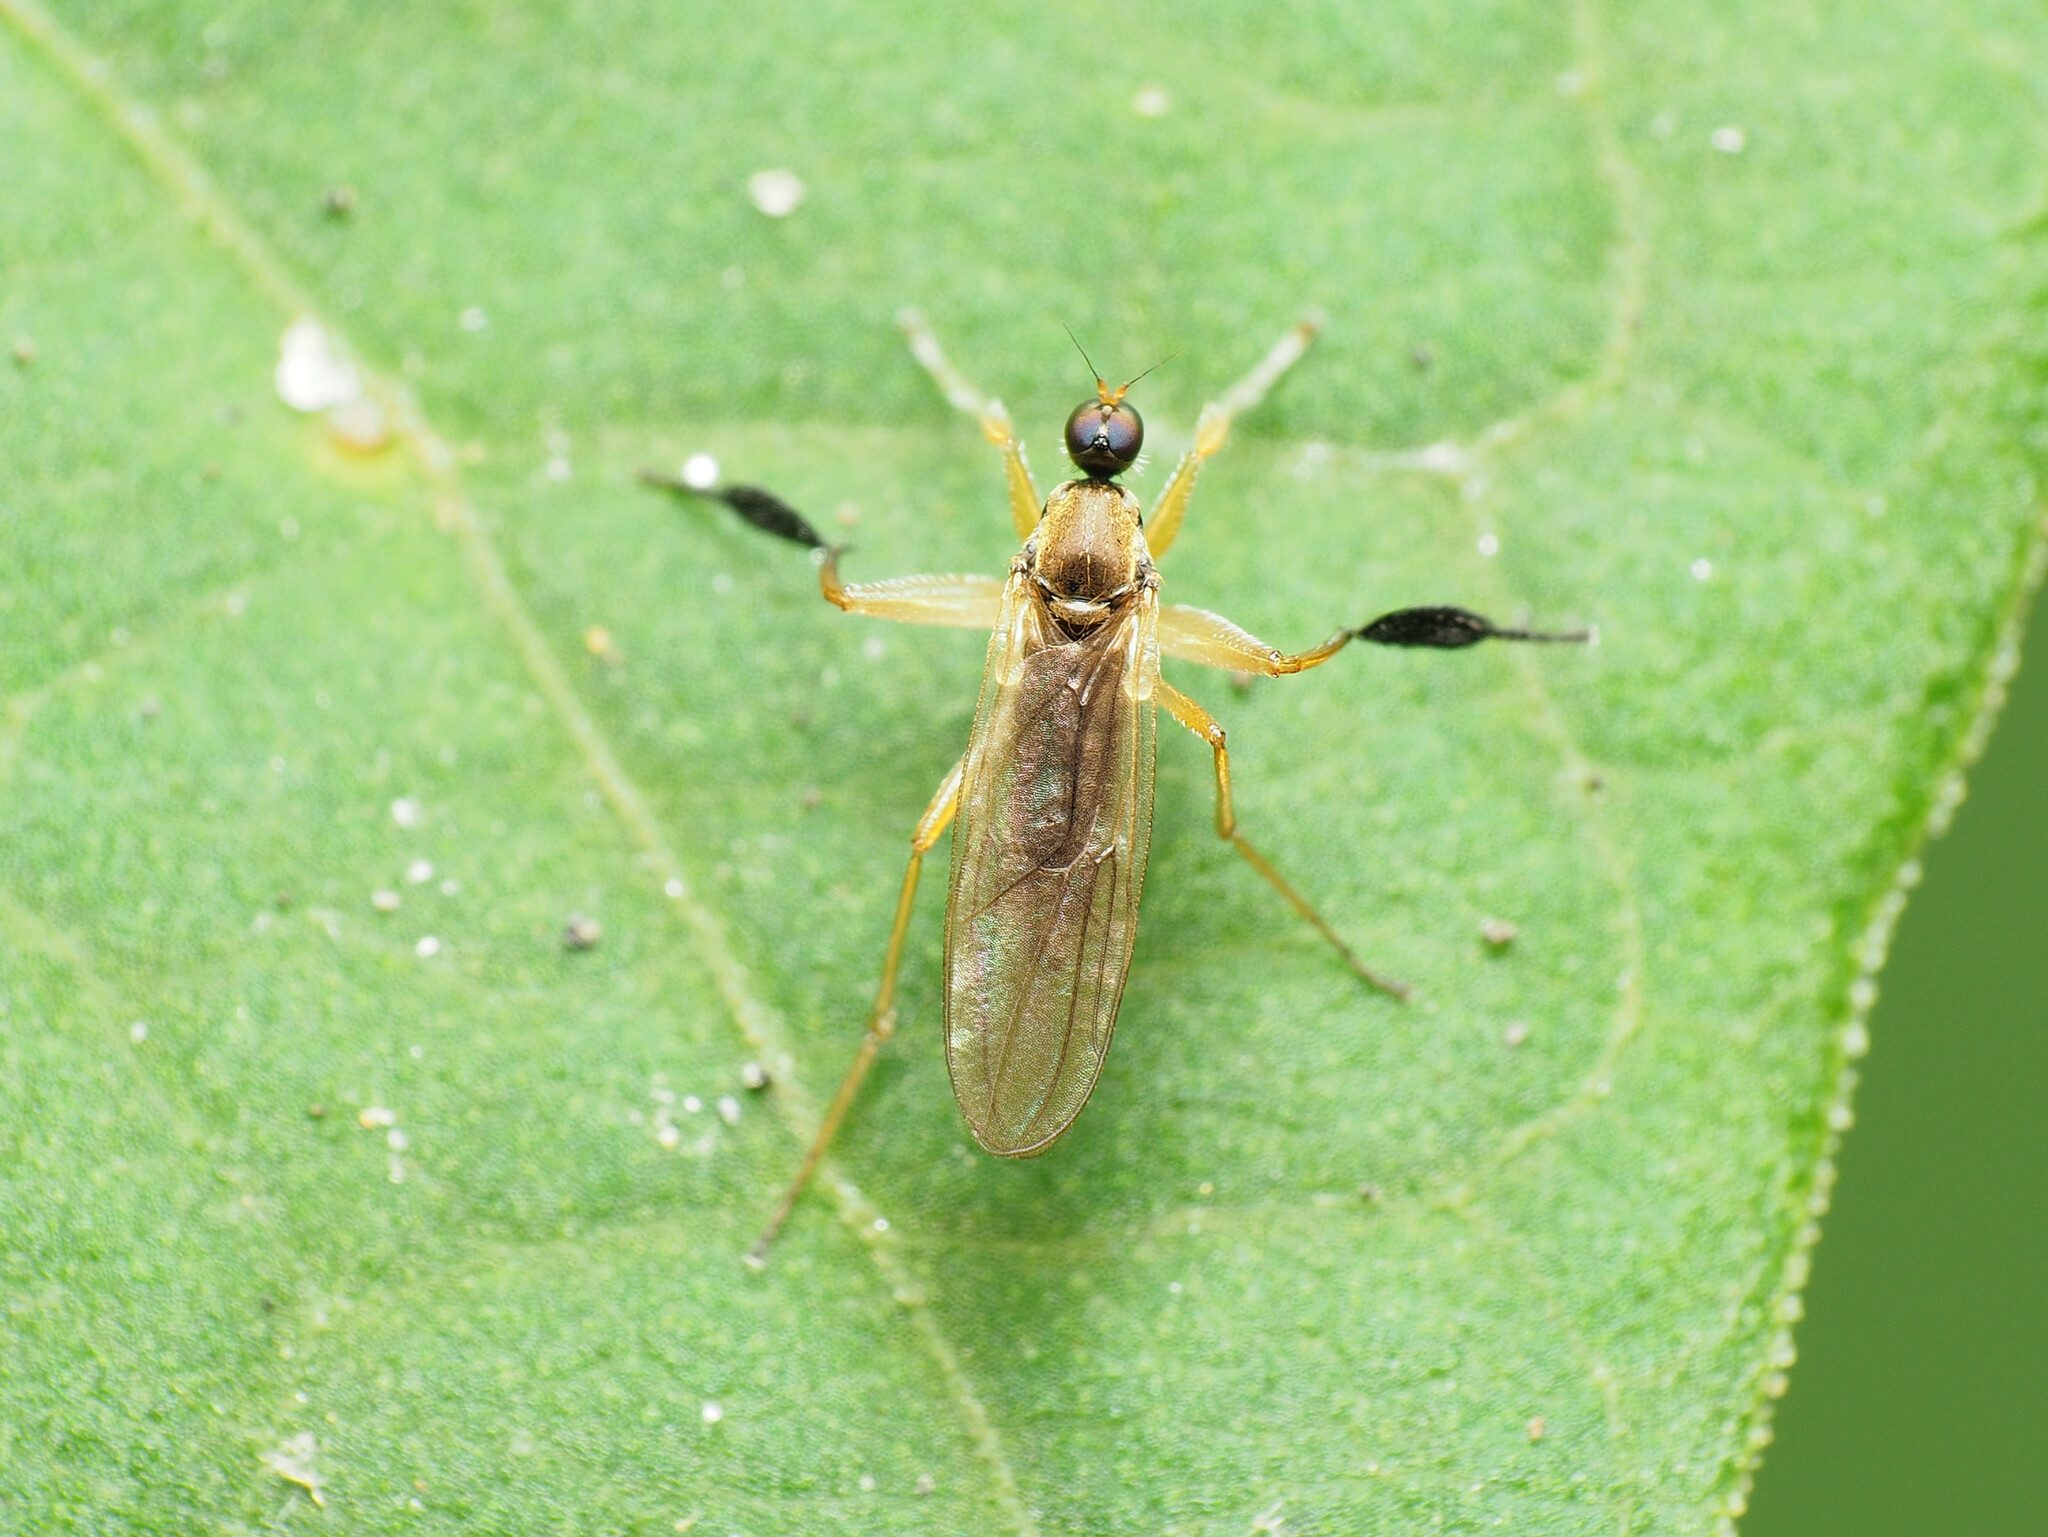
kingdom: Animalia
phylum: Arthropoda
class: Insecta
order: Diptera
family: Hybotidae
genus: Platypalpus
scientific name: Platypalpus discifer
